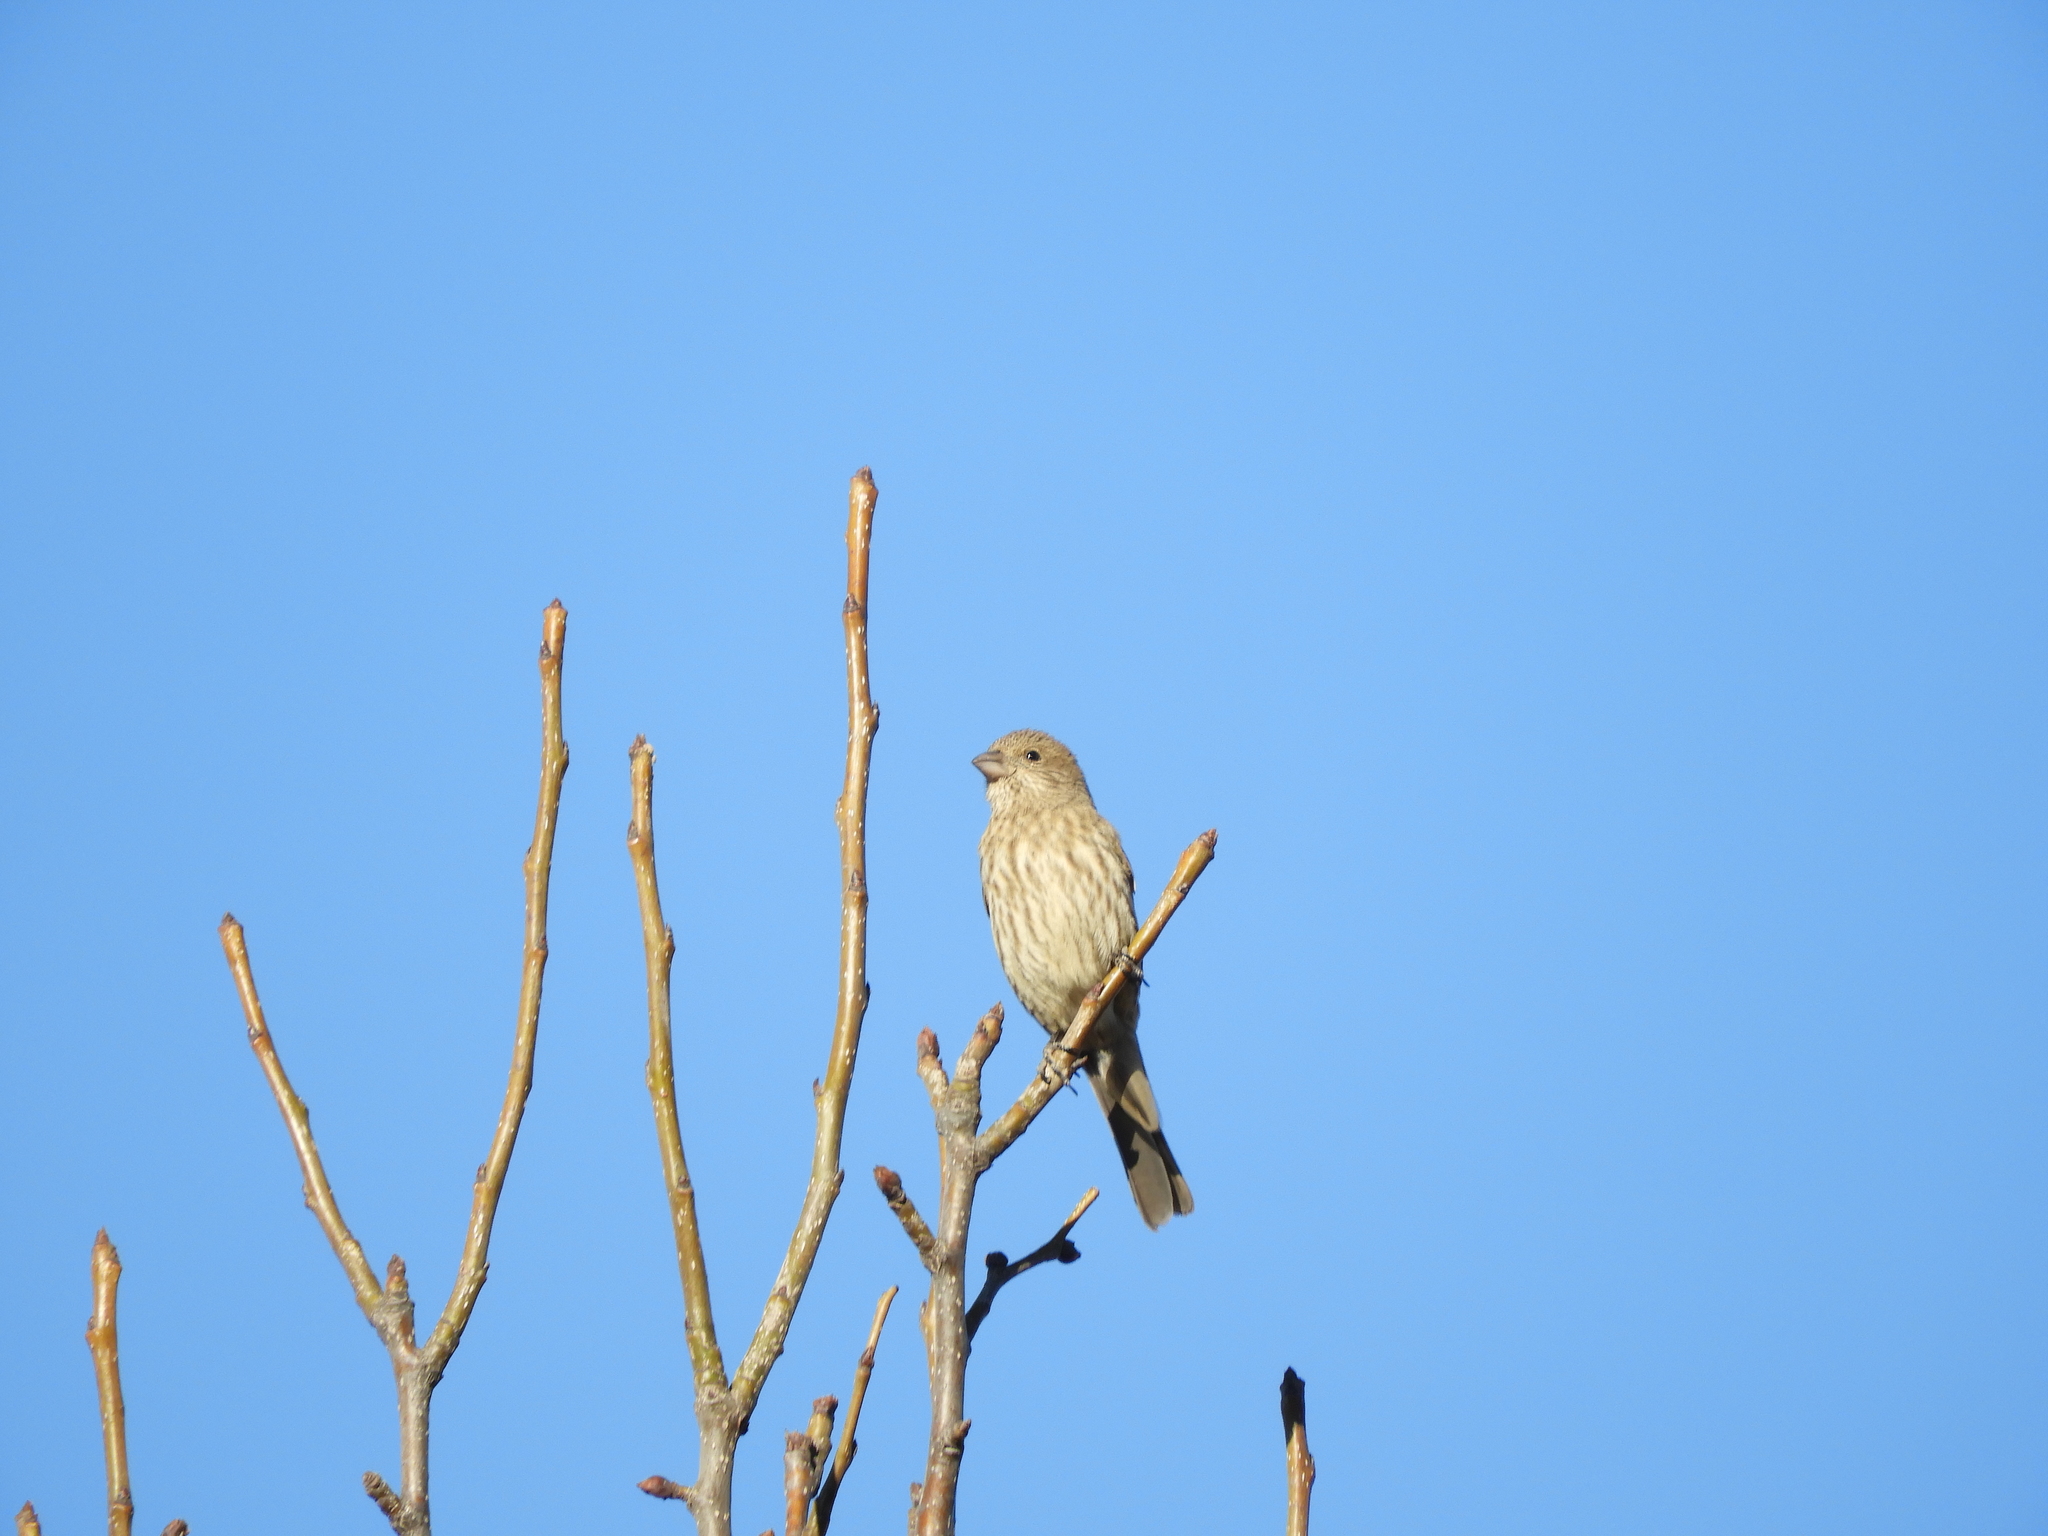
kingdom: Animalia
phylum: Chordata
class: Aves
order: Passeriformes
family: Fringillidae
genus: Haemorhous
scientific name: Haemorhous mexicanus
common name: House finch
